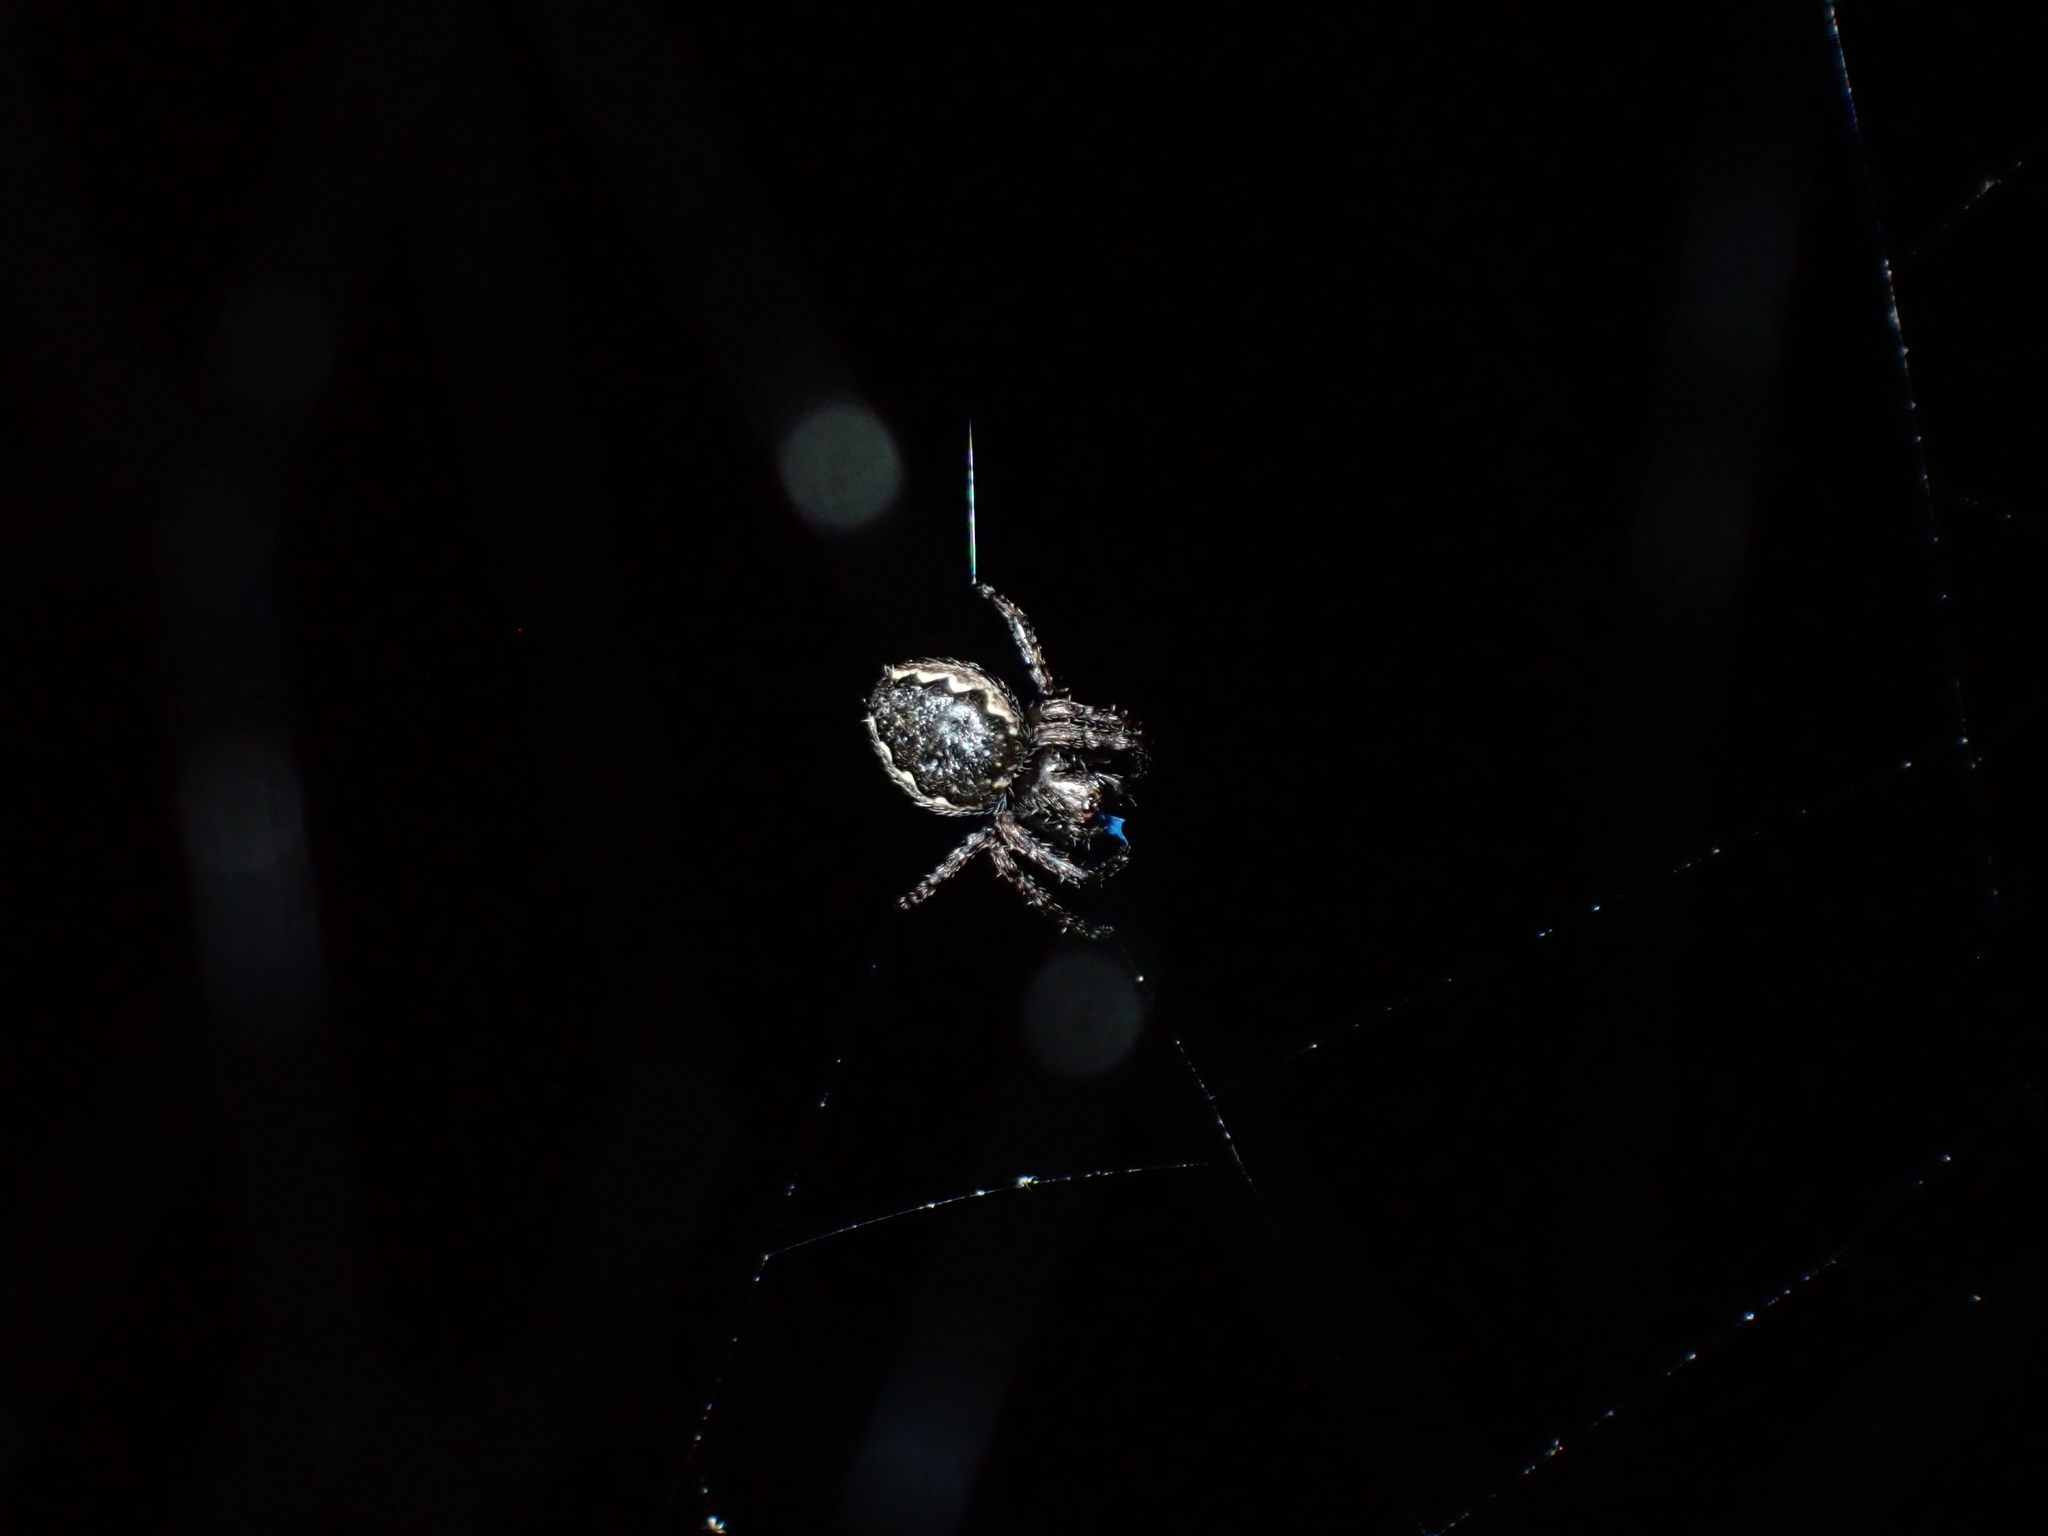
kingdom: Animalia
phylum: Arthropoda
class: Arachnida
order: Araneae
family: Araneidae
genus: Nuctenea
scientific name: Nuctenea umbratica
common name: Toad spider
